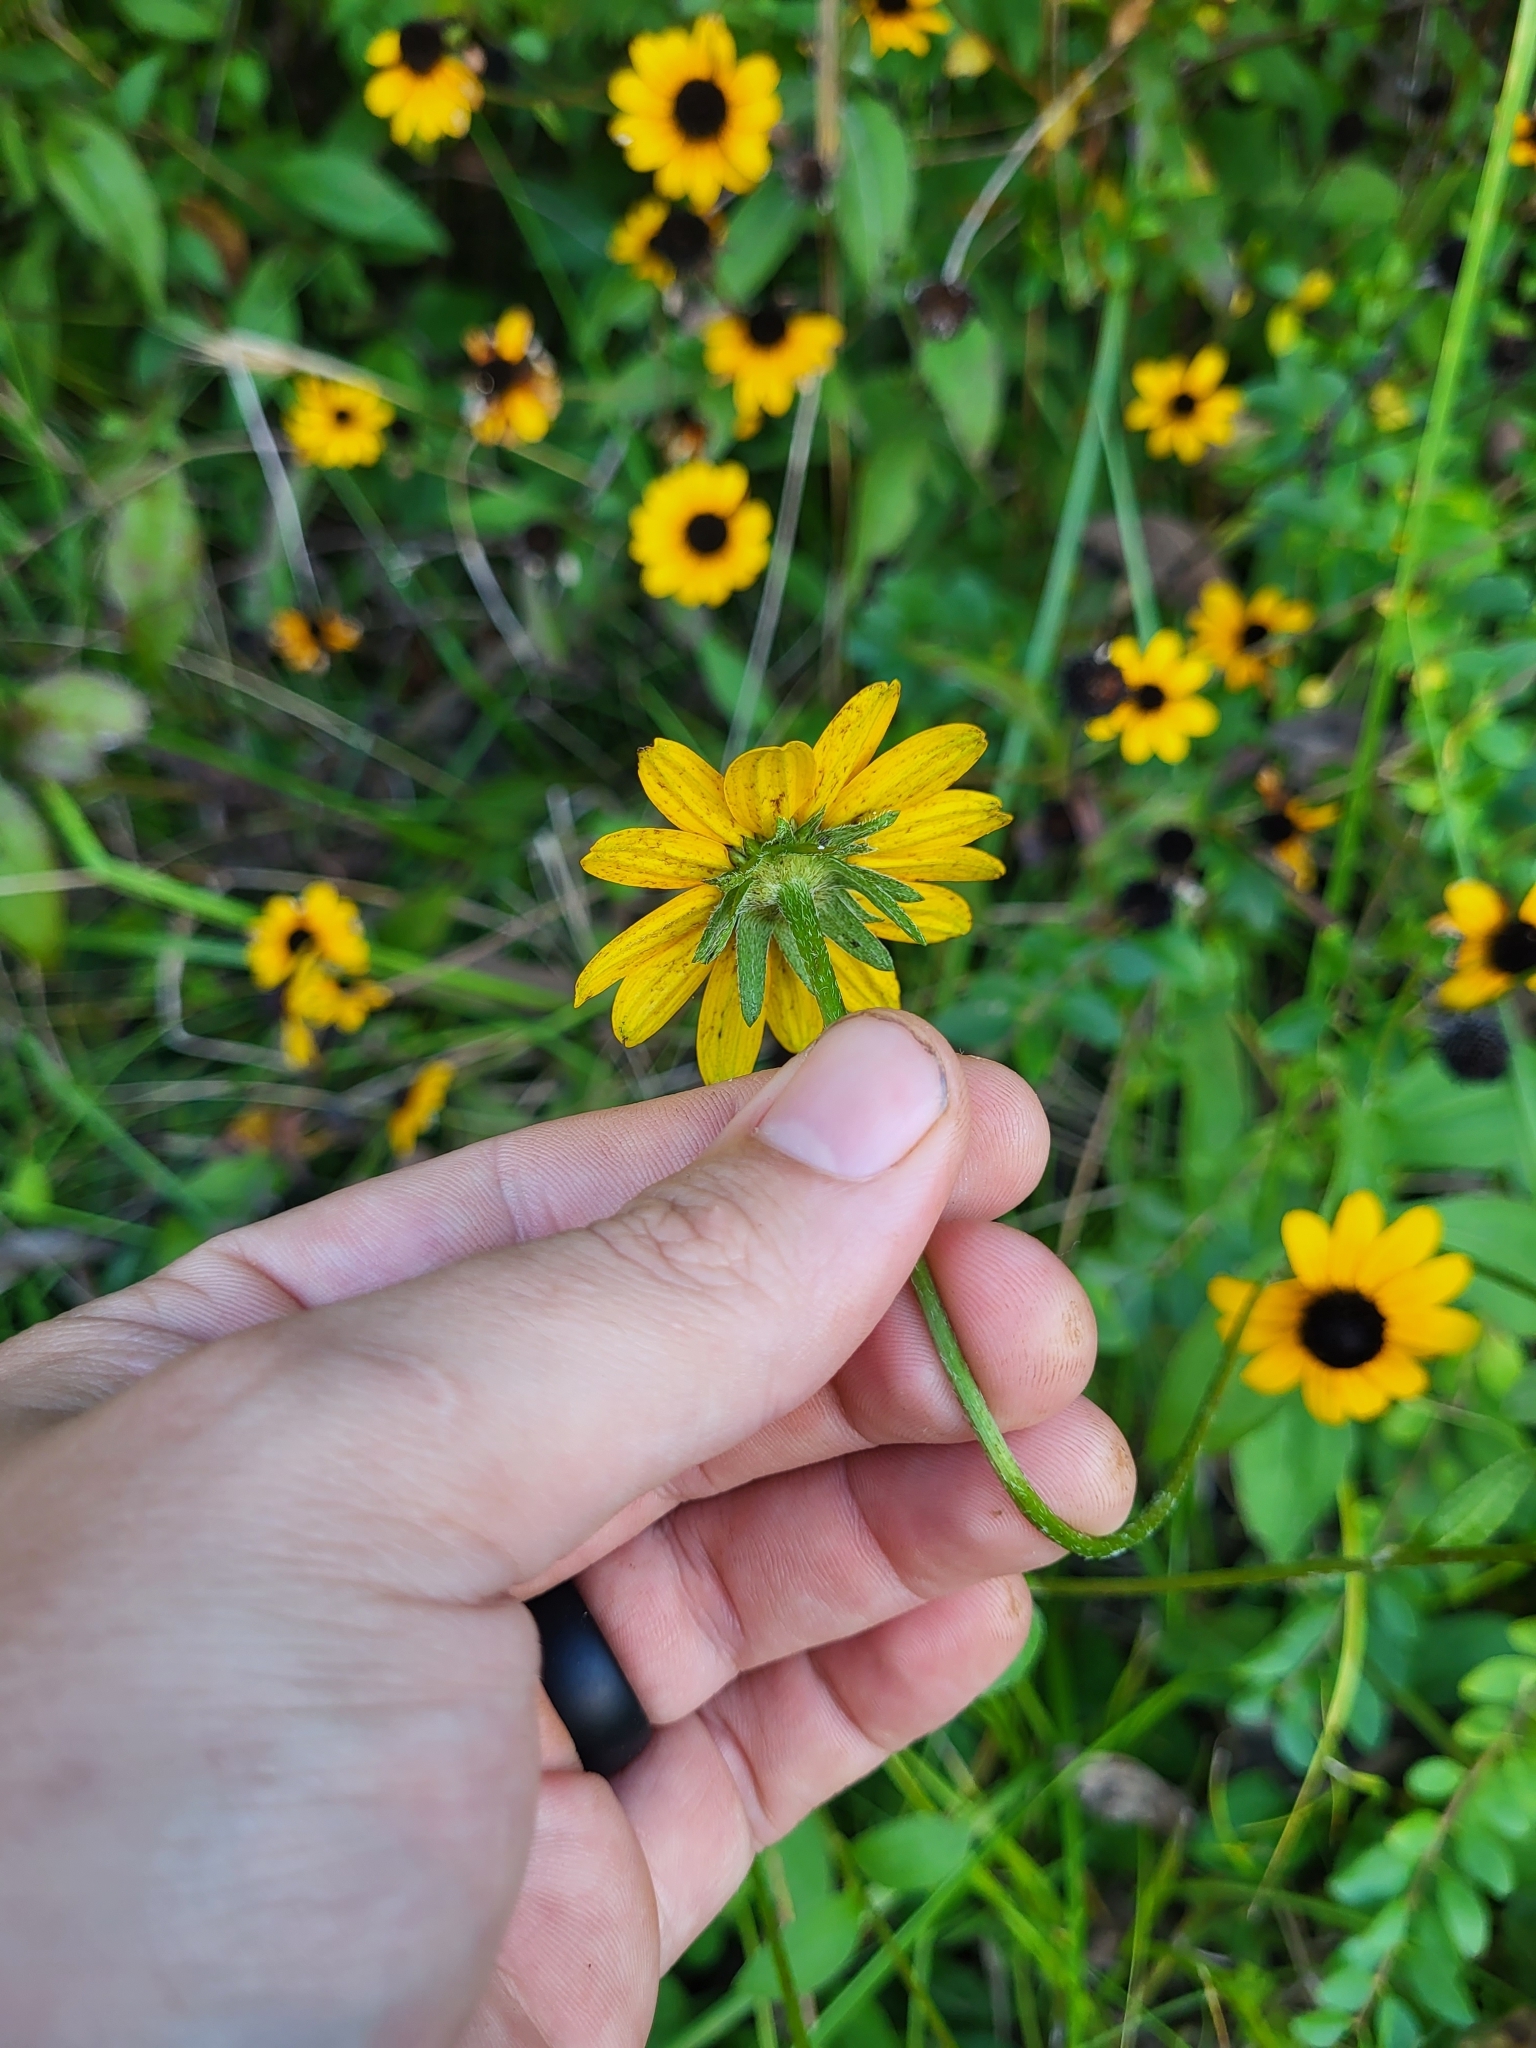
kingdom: Plantae
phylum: Tracheophyta
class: Magnoliopsida
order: Asterales
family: Asteraceae
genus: Rudbeckia
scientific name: Rudbeckia umbrosa
